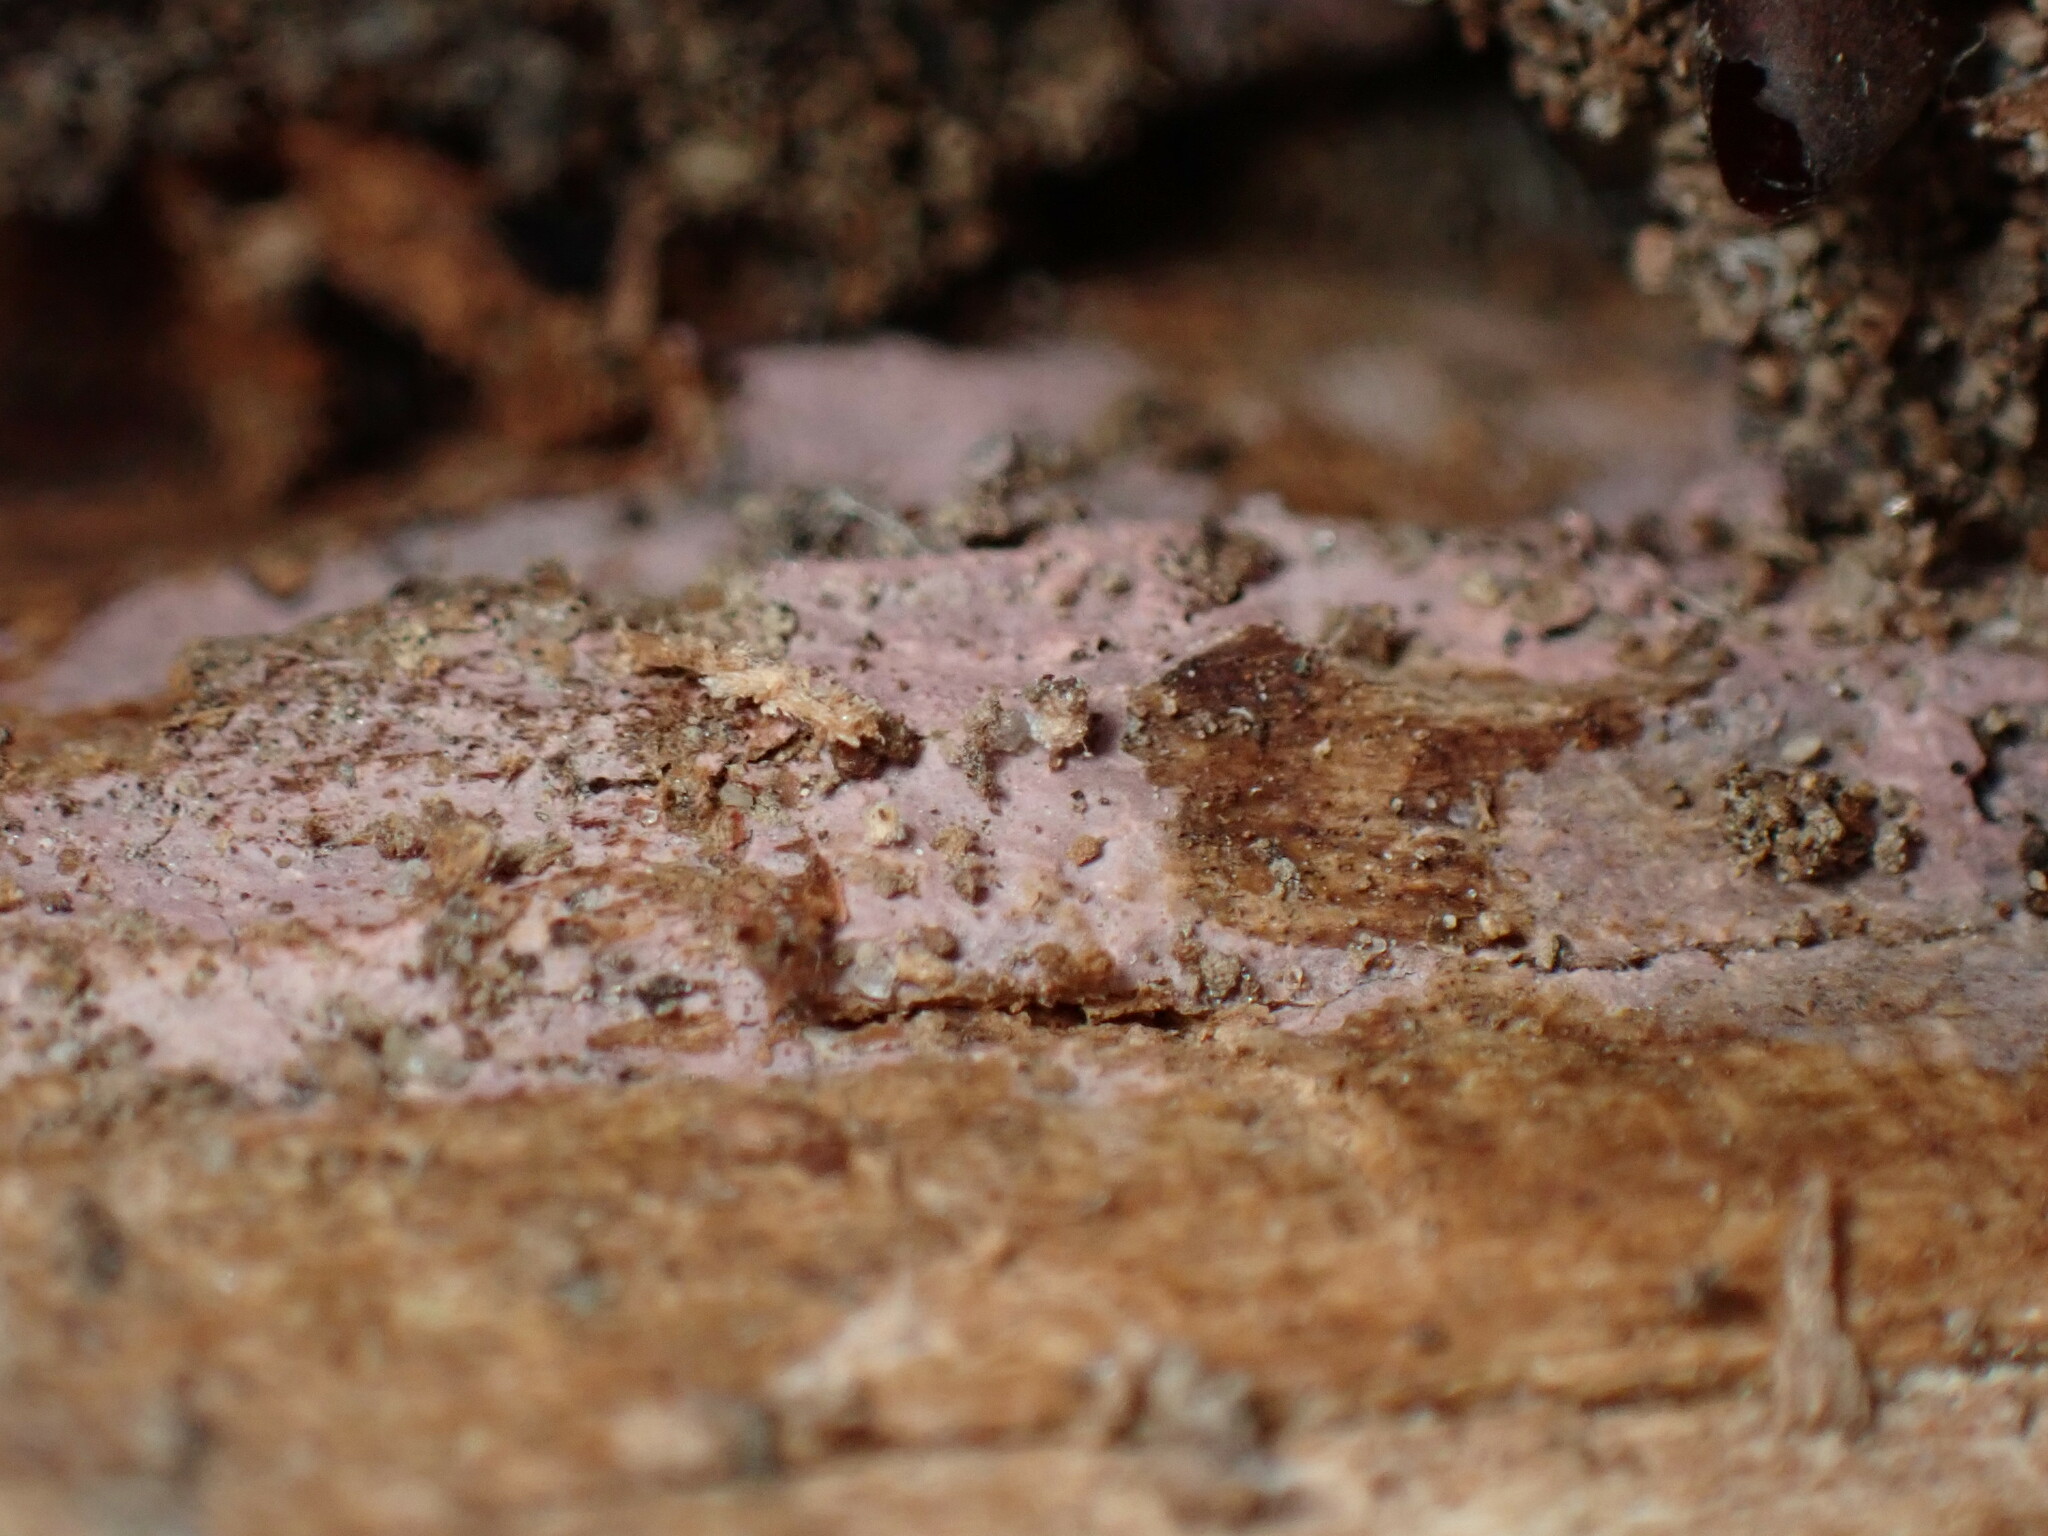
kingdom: Fungi
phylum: Basidiomycota
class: Agaricomycetes
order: Cantharellales
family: Tulasnellaceae
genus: Tulasnella
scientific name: Tulasnella violea
